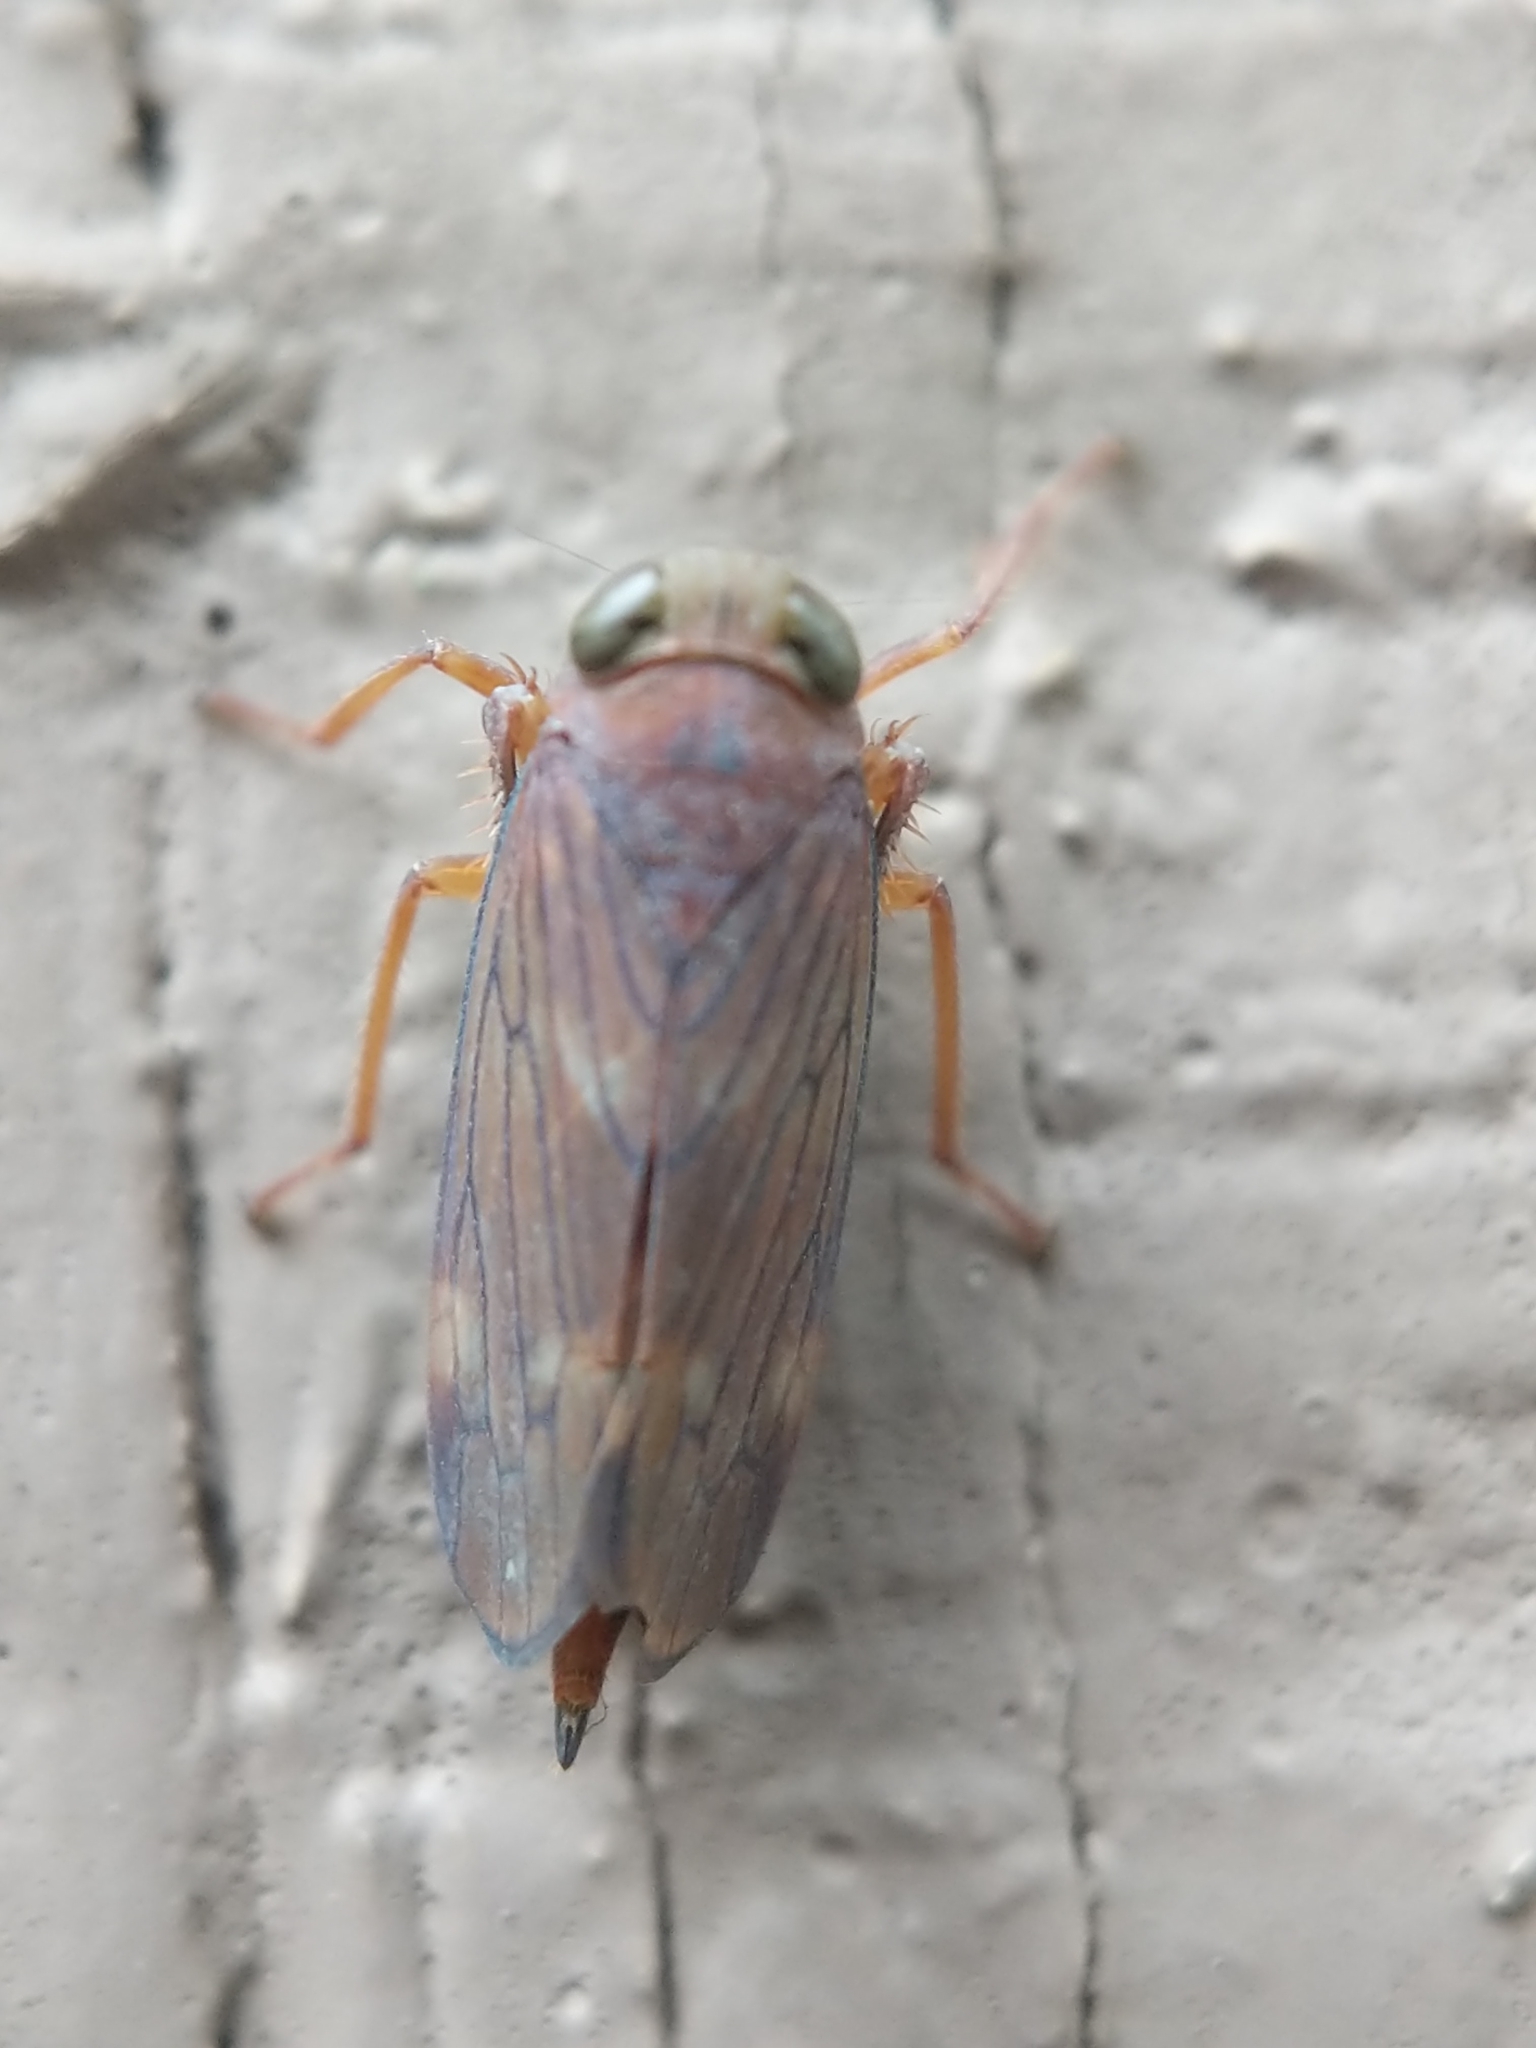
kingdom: Animalia
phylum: Arthropoda
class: Insecta
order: Hemiptera
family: Cicadellidae
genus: Jikradia
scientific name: Jikradia olitoria
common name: Coppery leafhopper
